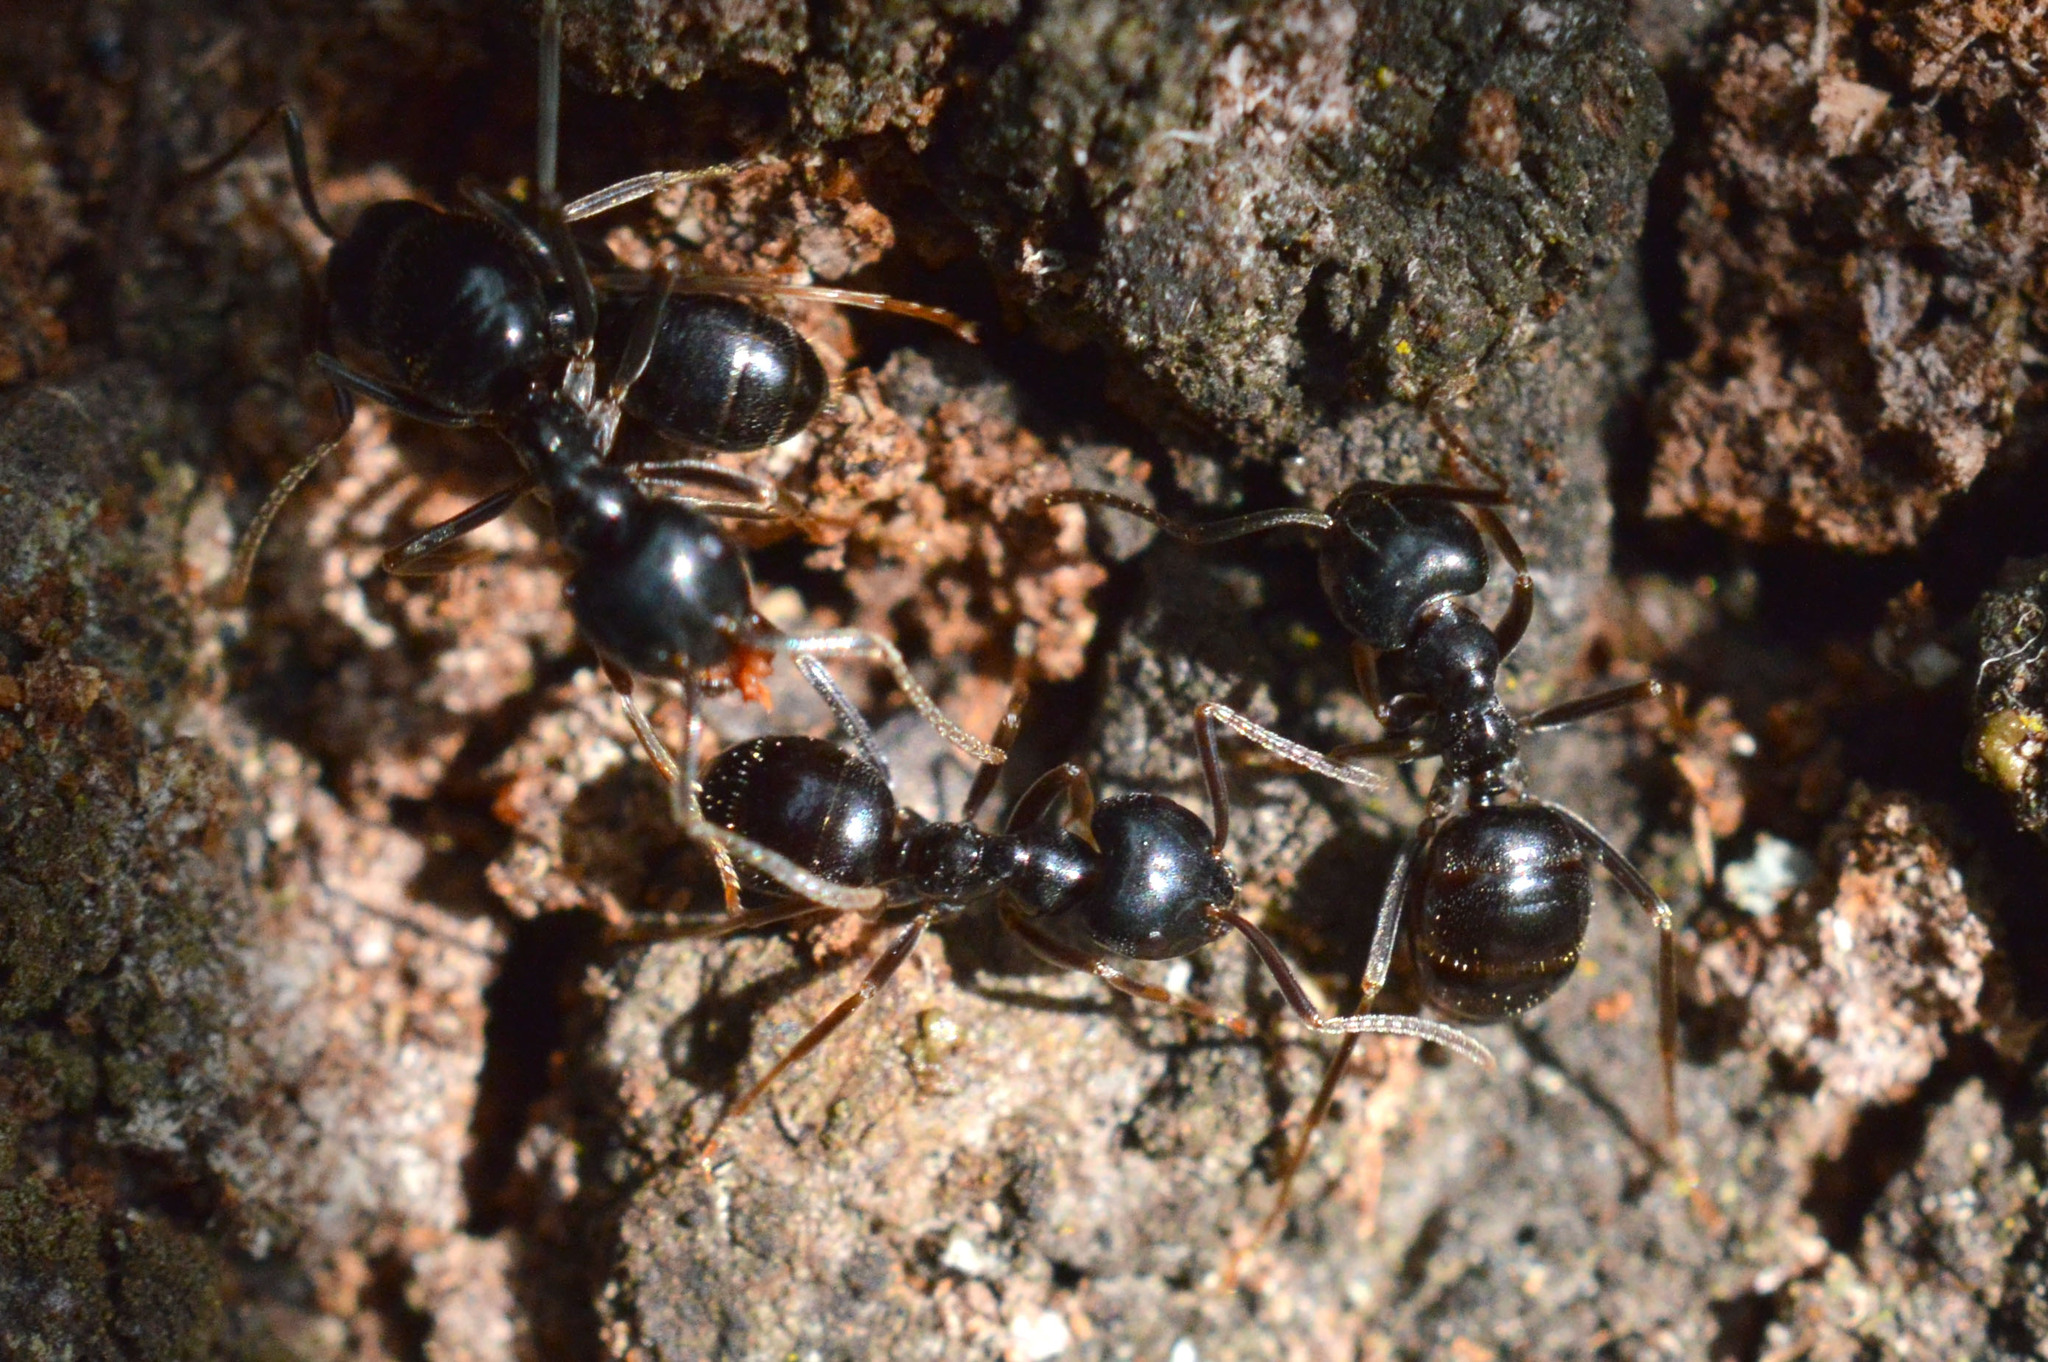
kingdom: Animalia
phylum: Arthropoda
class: Insecta
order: Hymenoptera
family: Formicidae
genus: Lasius
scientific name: Lasius fuliginosus
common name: Jet ant
